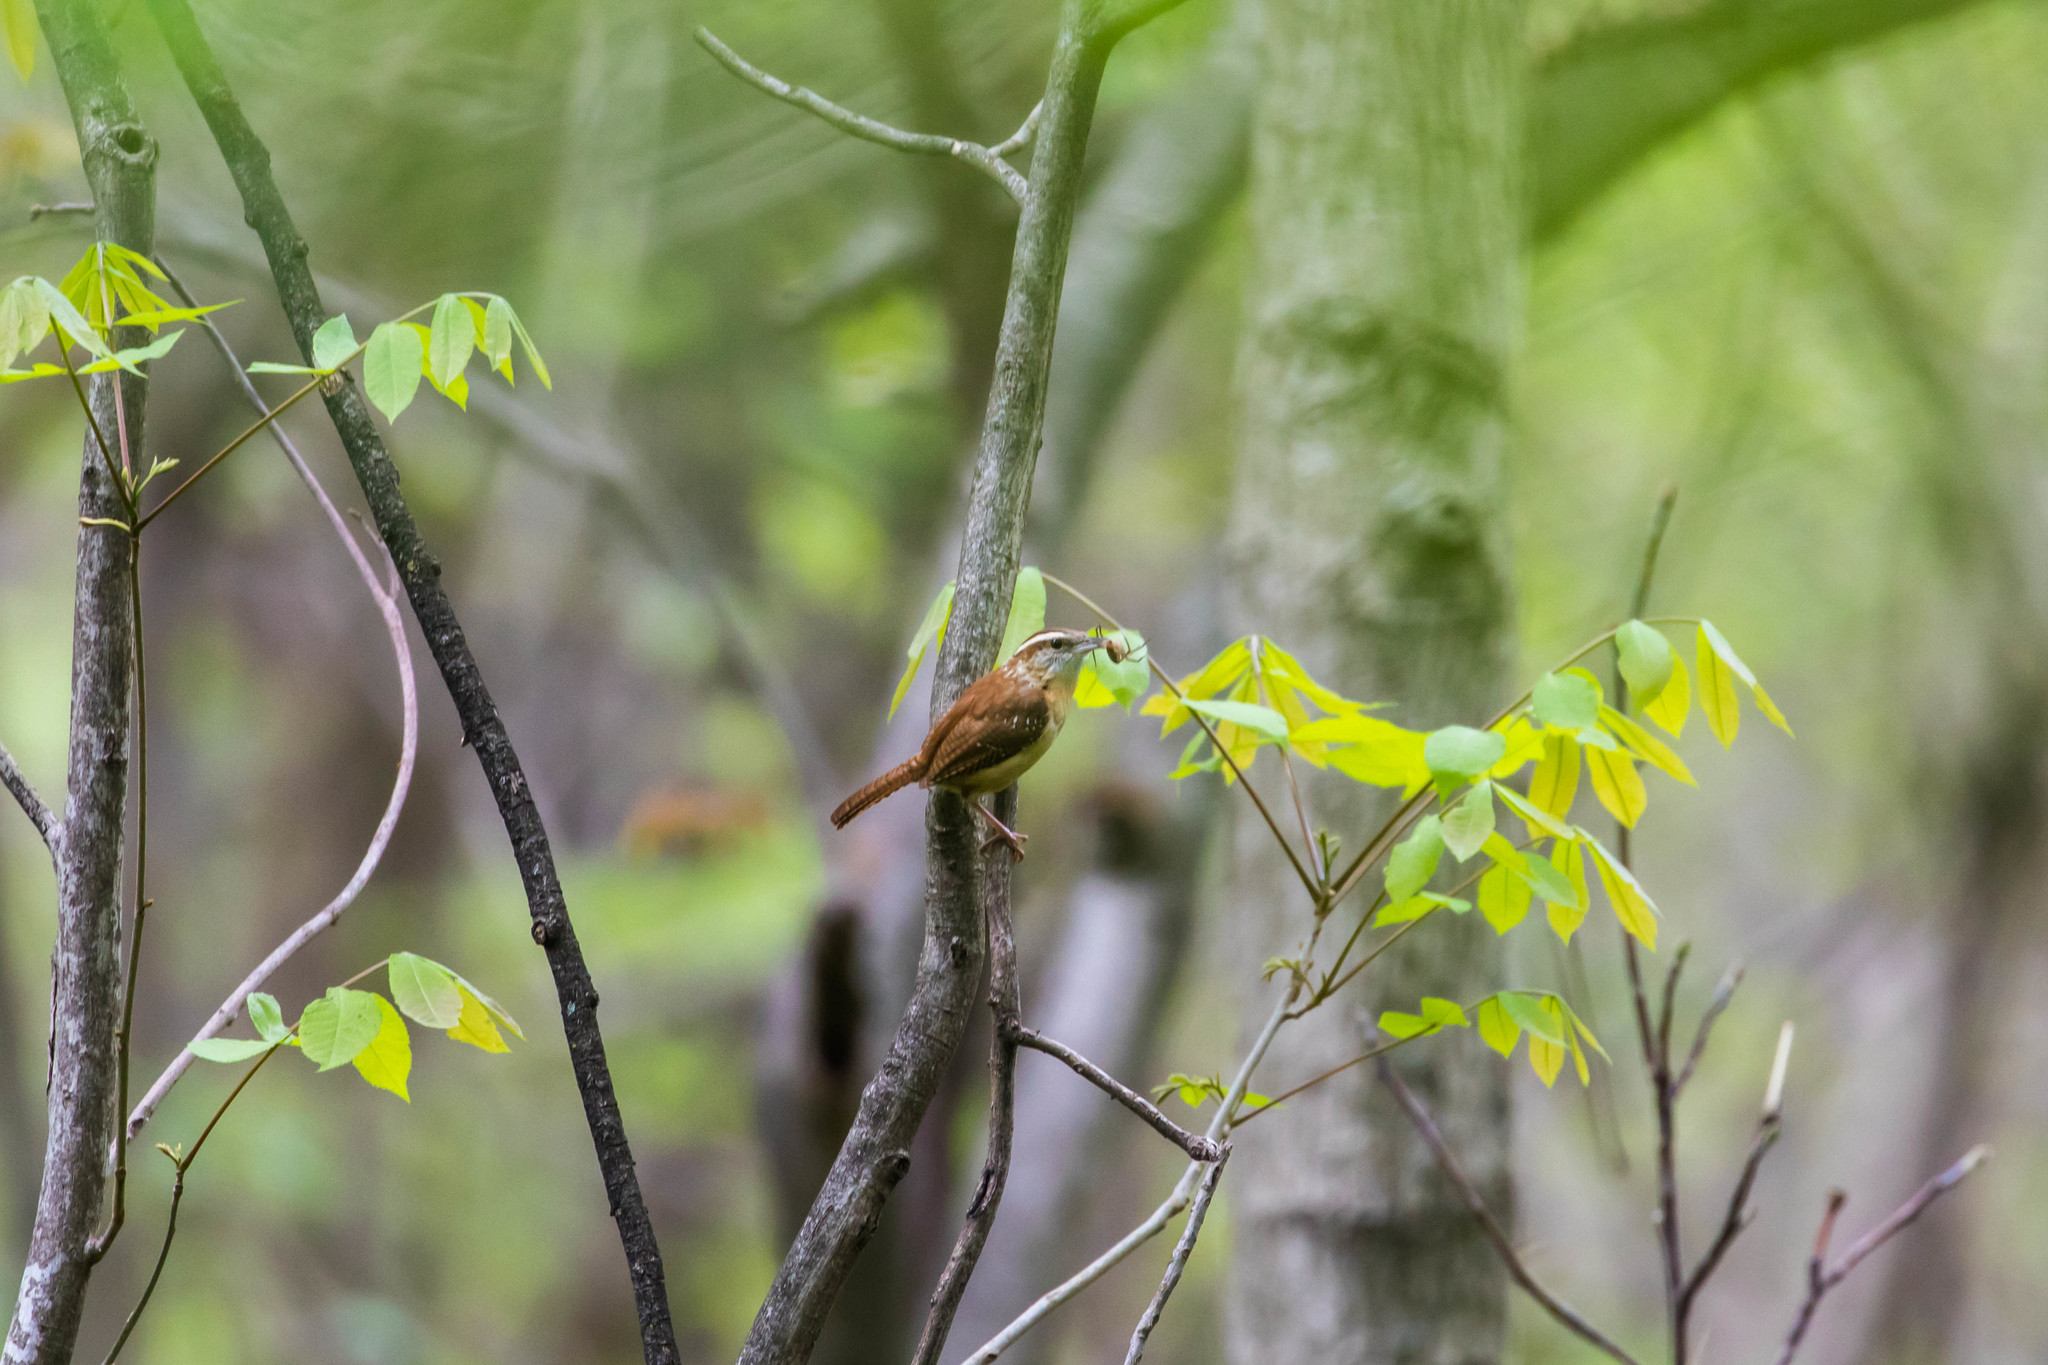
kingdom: Animalia
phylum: Chordata
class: Aves
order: Passeriformes
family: Troglodytidae
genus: Thryothorus
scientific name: Thryothorus ludovicianus
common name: Carolina wren
